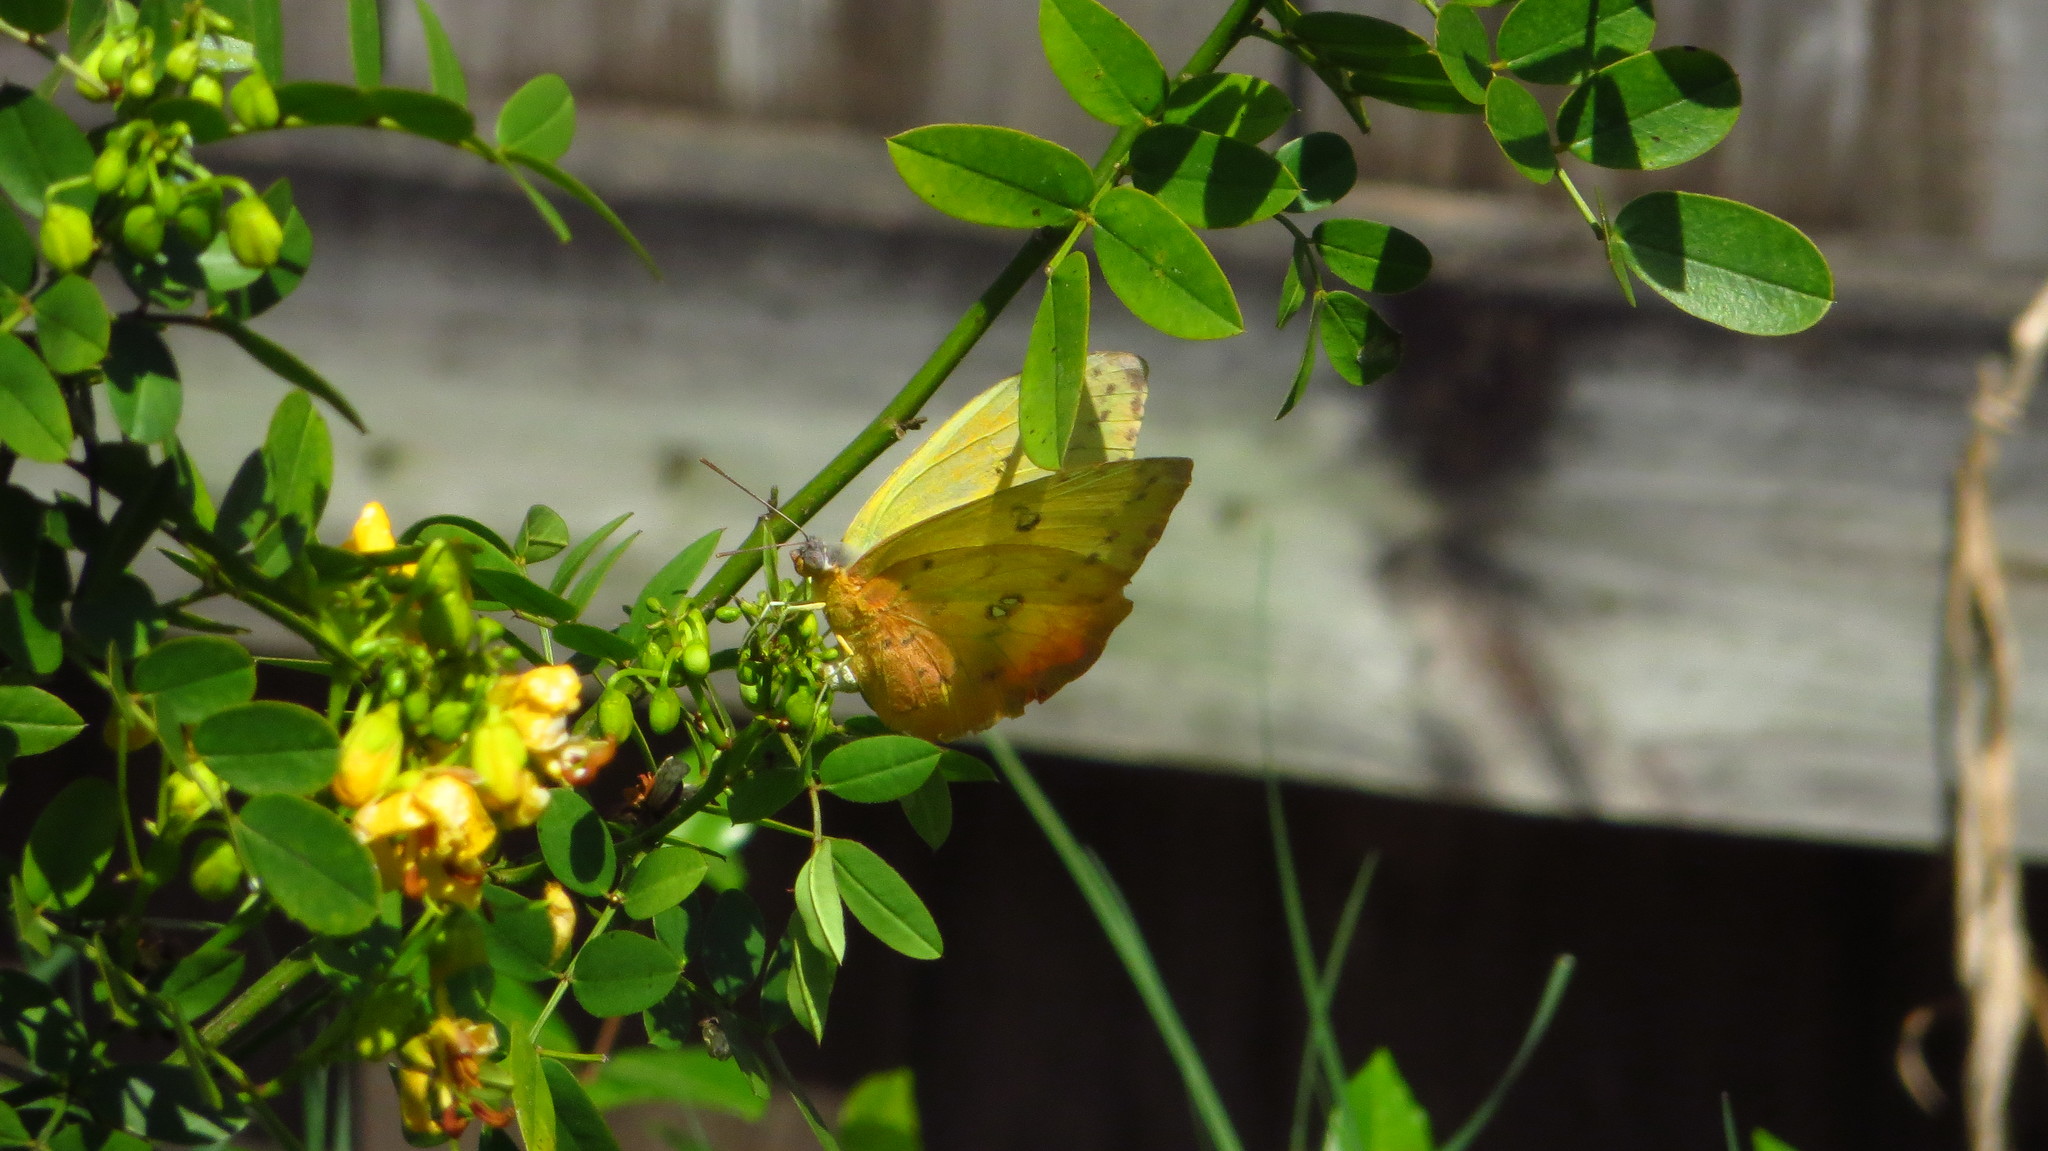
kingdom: Animalia
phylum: Arthropoda
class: Insecta
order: Lepidoptera
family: Pieridae
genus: Phoebis
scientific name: Phoebis philea
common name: Orange-barred giant sulphur
